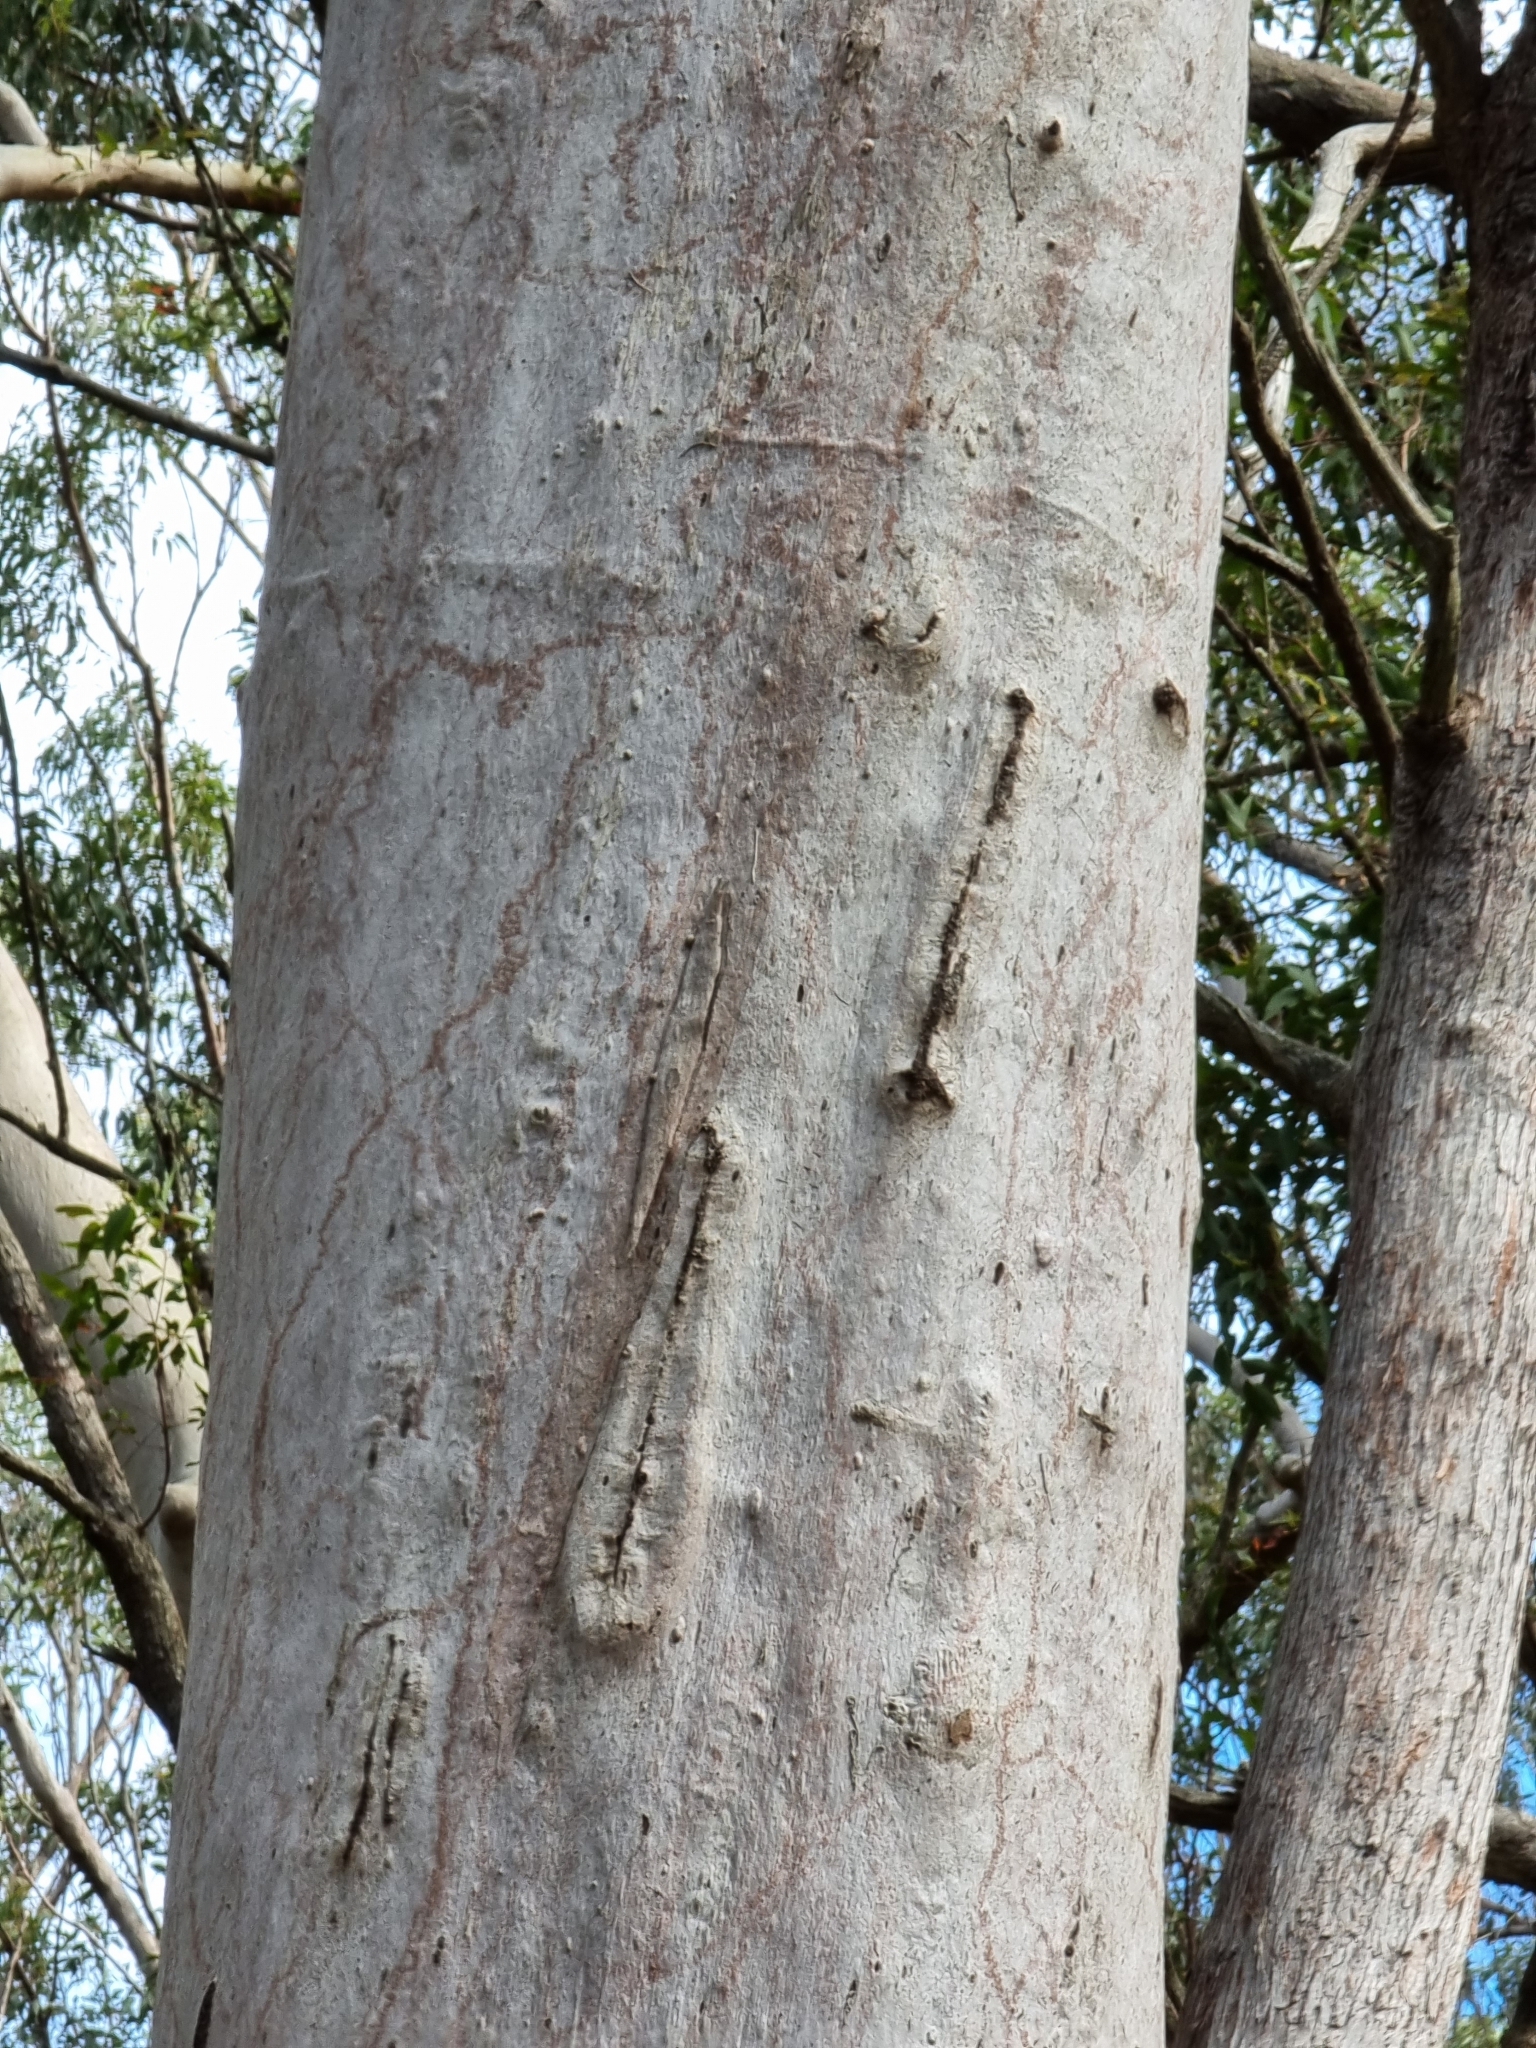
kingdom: Plantae
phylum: Tracheophyta
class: Magnoliopsida
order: Myrtales
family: Myrtaceae
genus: Corymbia
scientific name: Corymbia citriodora
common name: Lemonscented gum
